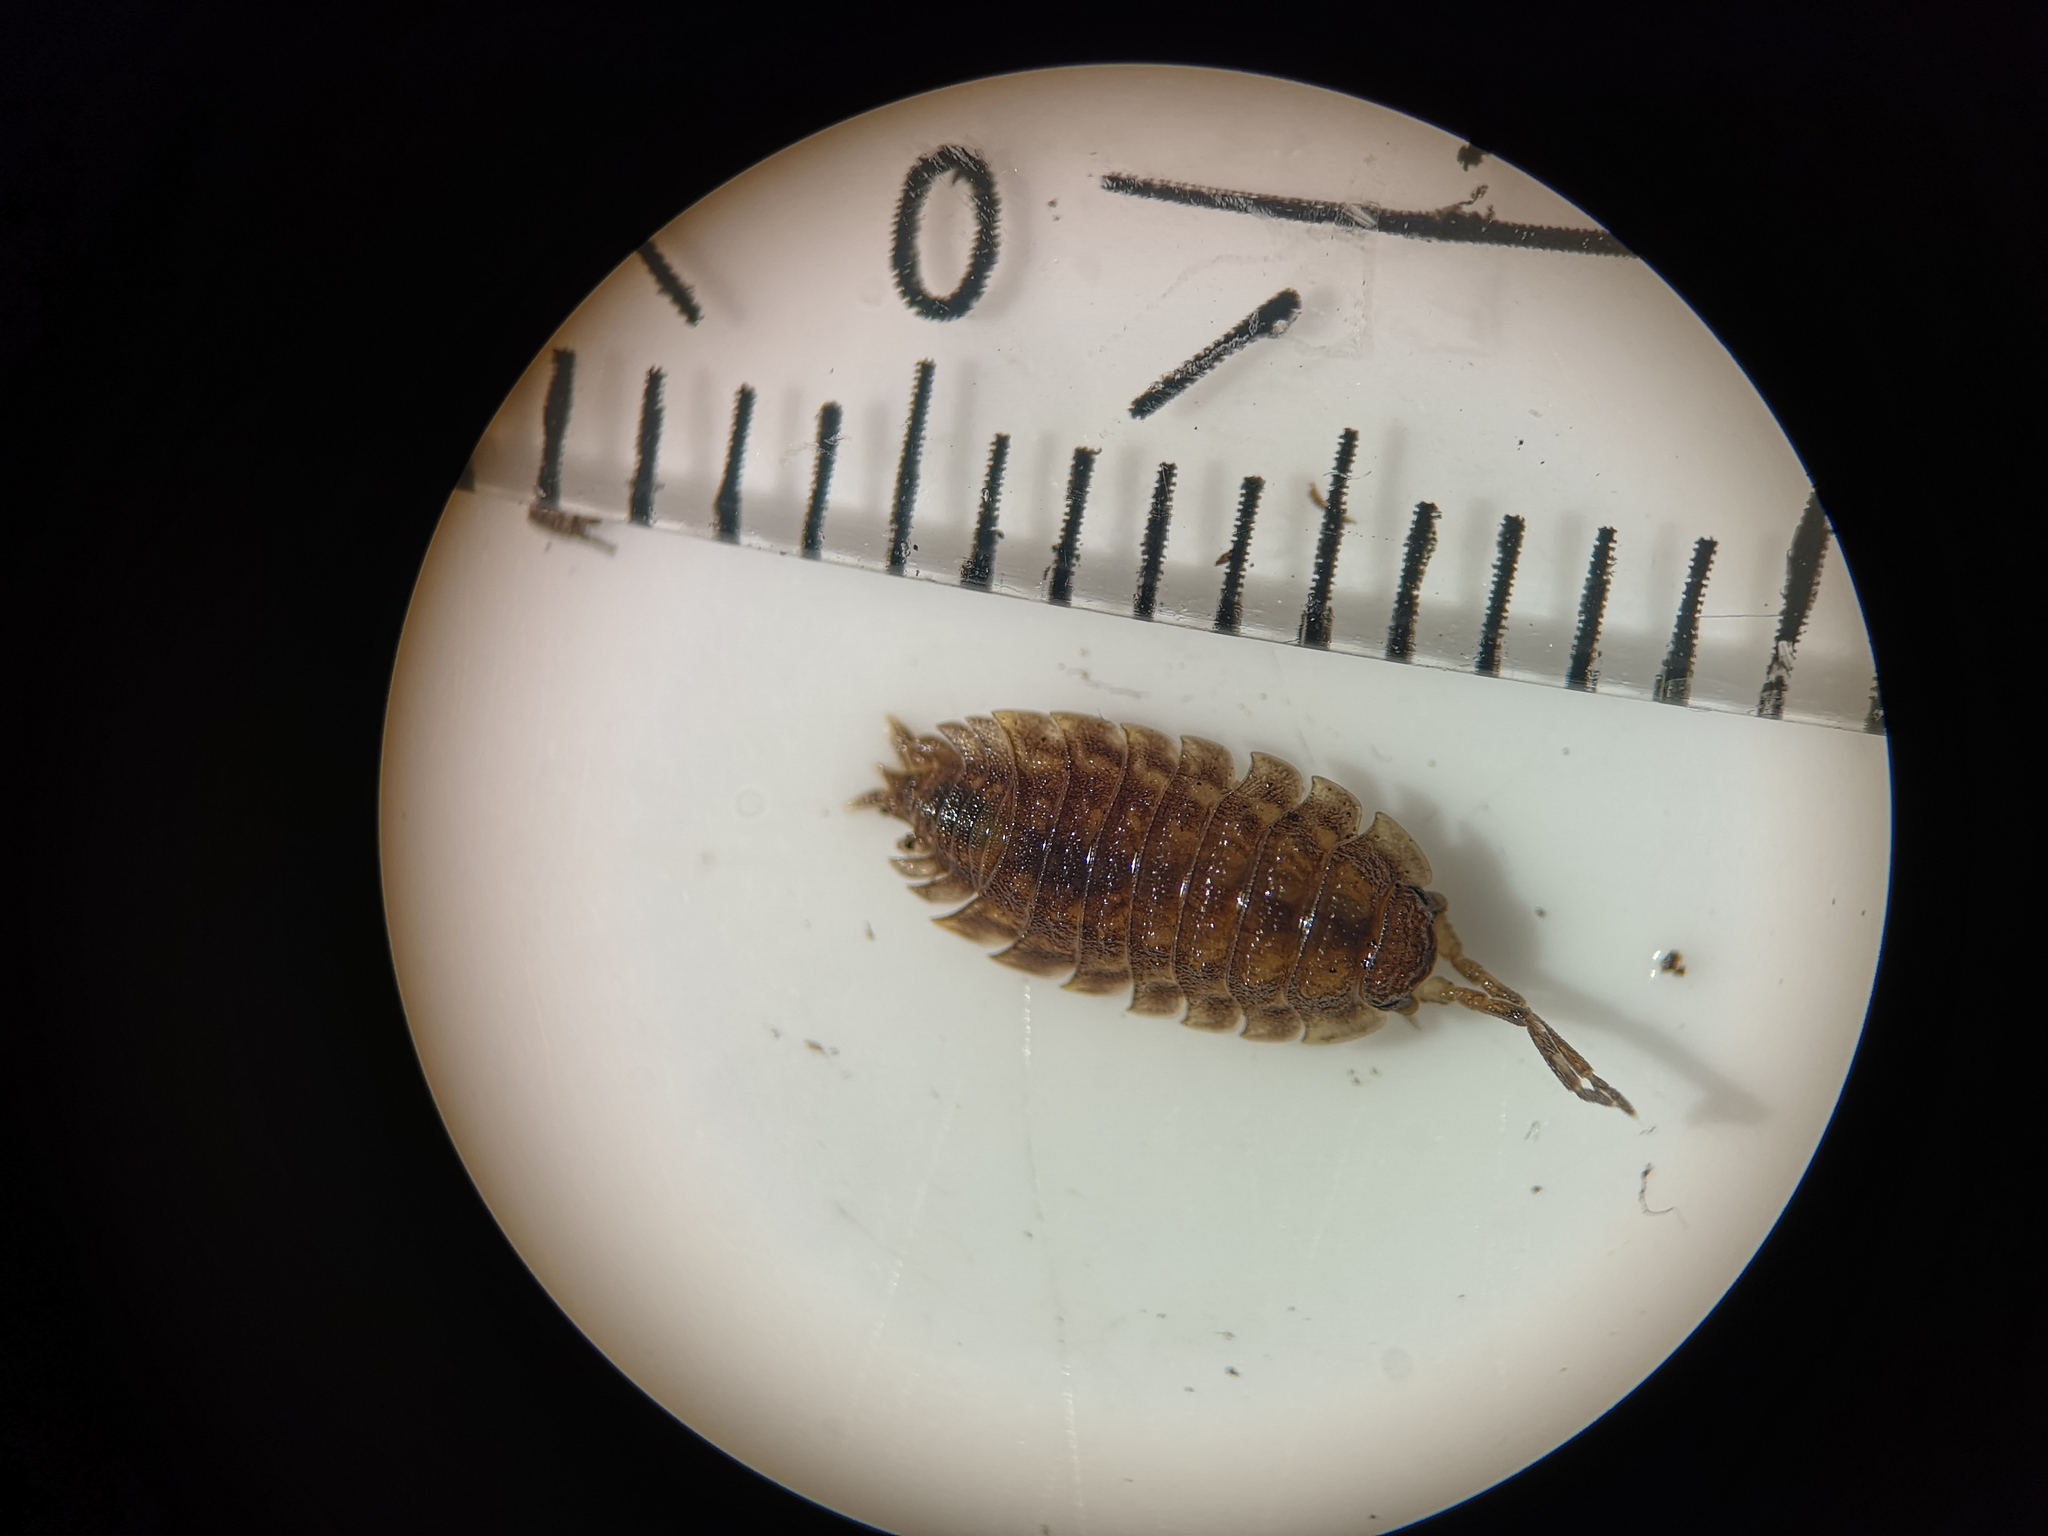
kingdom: Animalia
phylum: Arthropoda
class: Malacostraca
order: Isopoda
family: Oniscidae
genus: Oniscus
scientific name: Oniscus asellus
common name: Common shiny woodlouse
